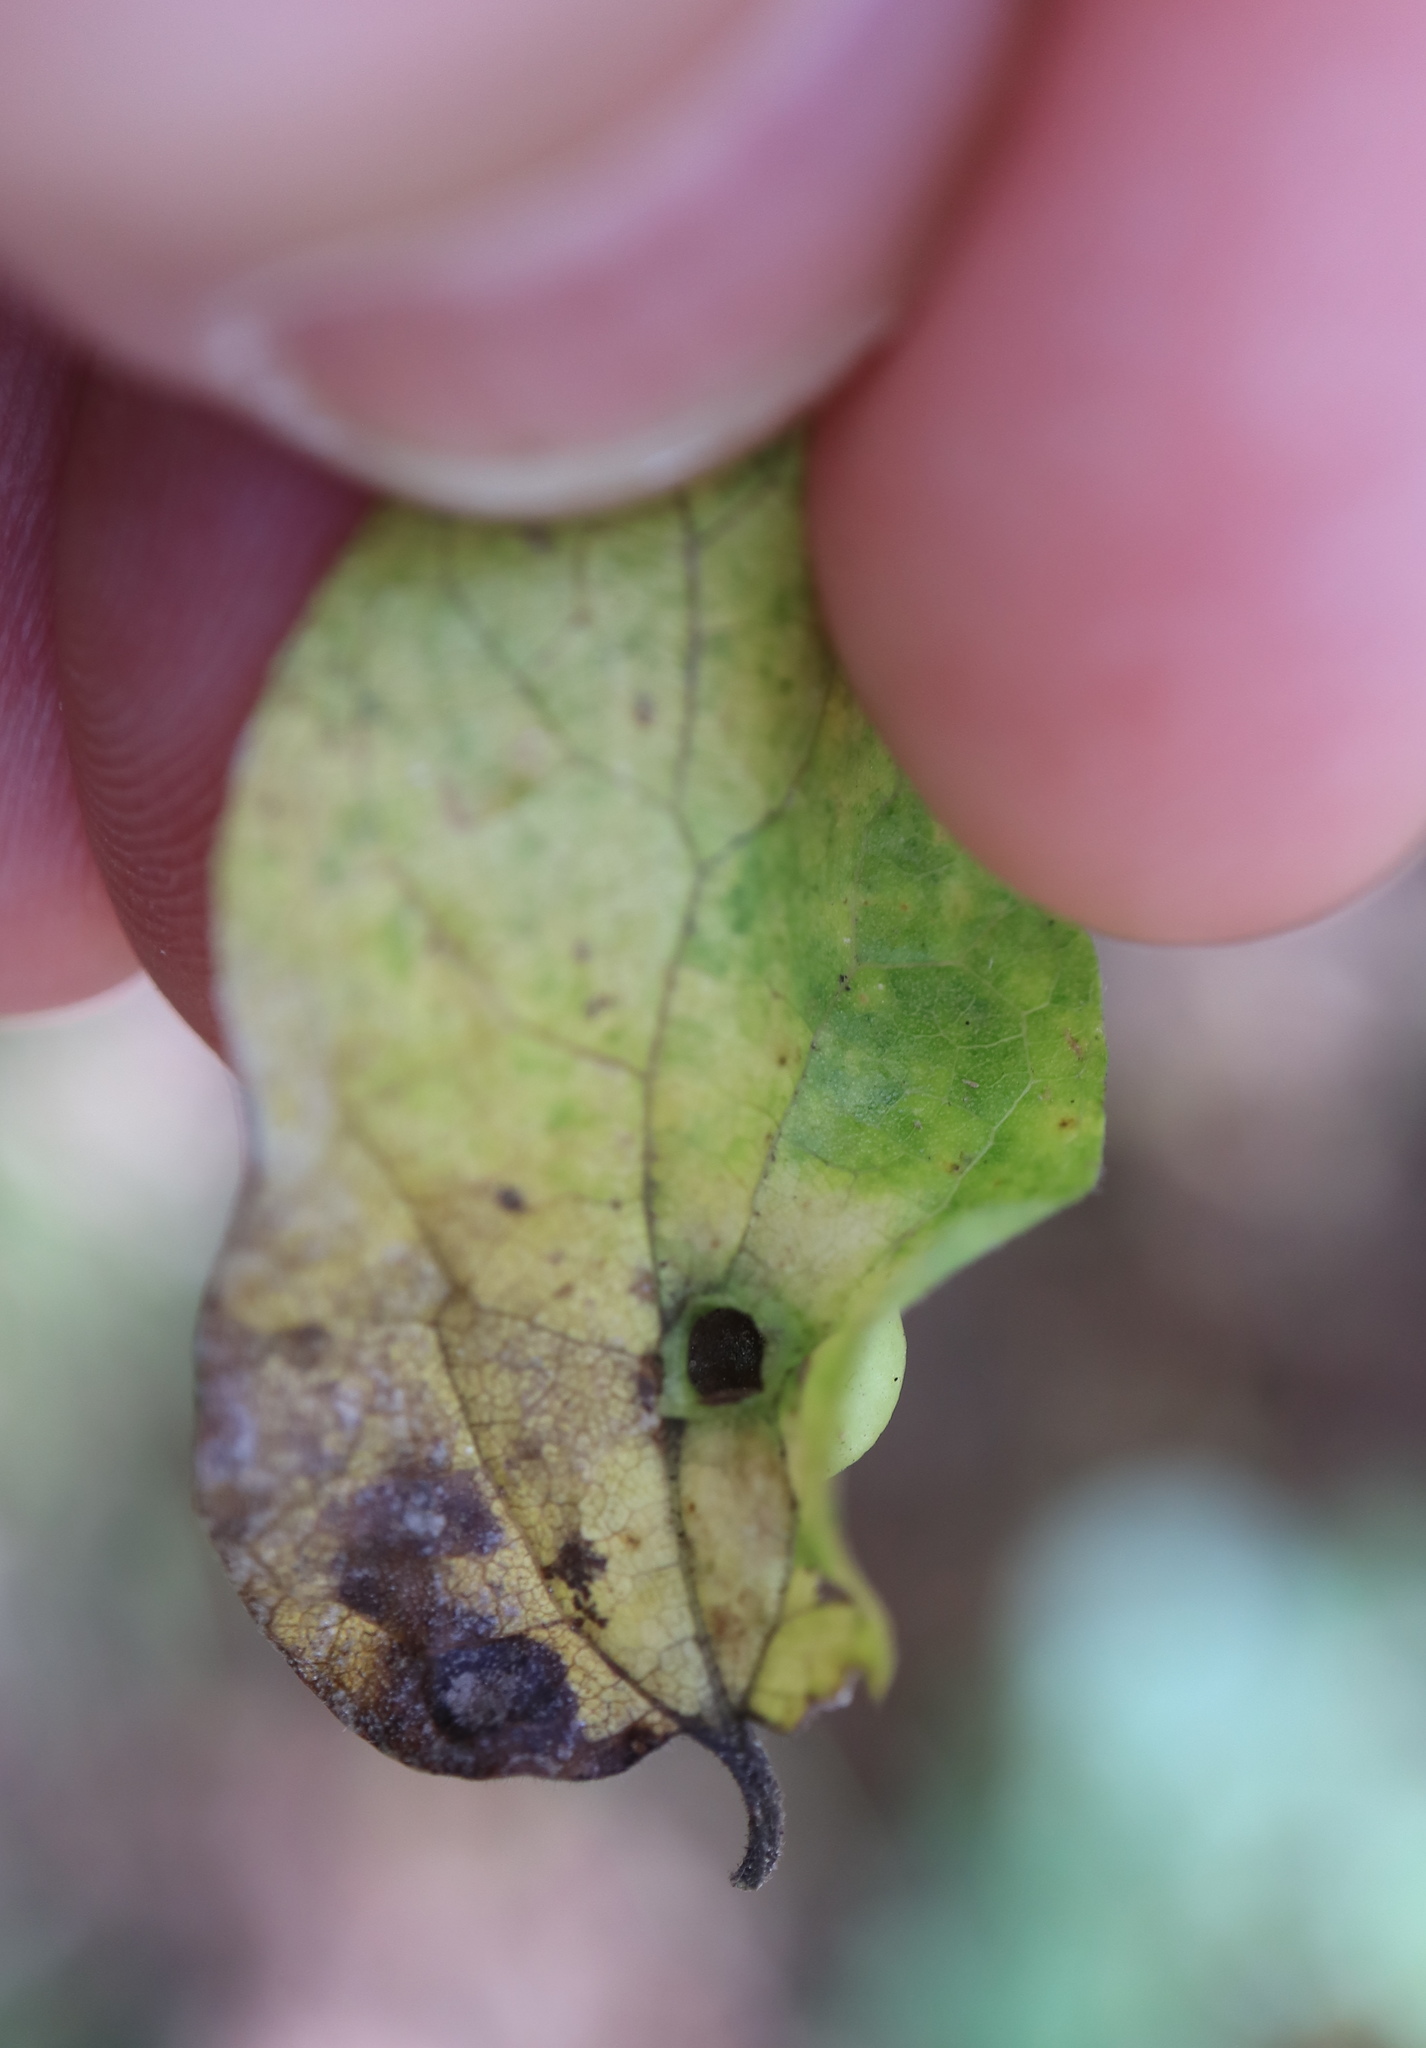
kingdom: Animalia
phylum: Arthropoda
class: Insecta
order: Hemiptera
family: Aphalaridae
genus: Pachypsylla
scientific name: Pachypsylla celtidismamma
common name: Hackberry nipplegall psyllid
